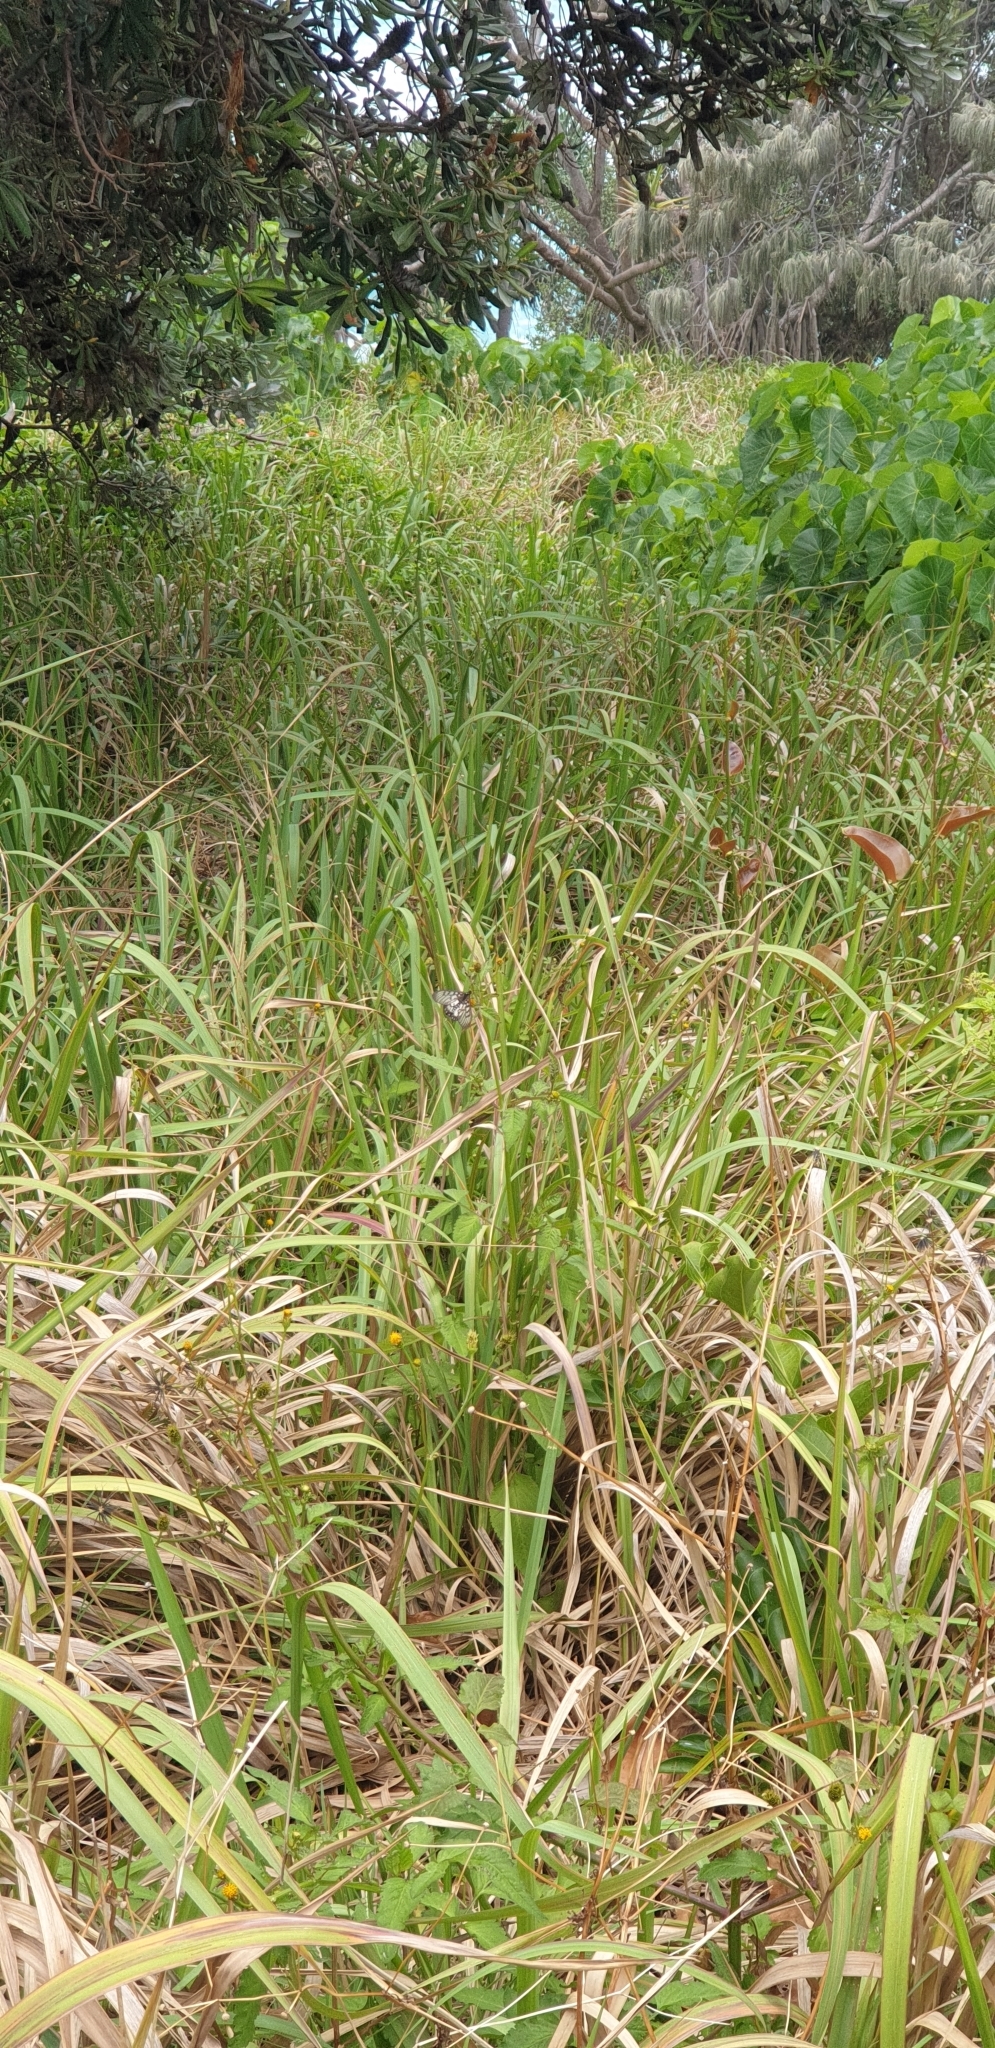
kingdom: Animalia
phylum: Arthropoda
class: Insecta
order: Lepidoptera
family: Nymphalidae
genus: Acraea
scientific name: Acraea andromacha
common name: Glasswing
